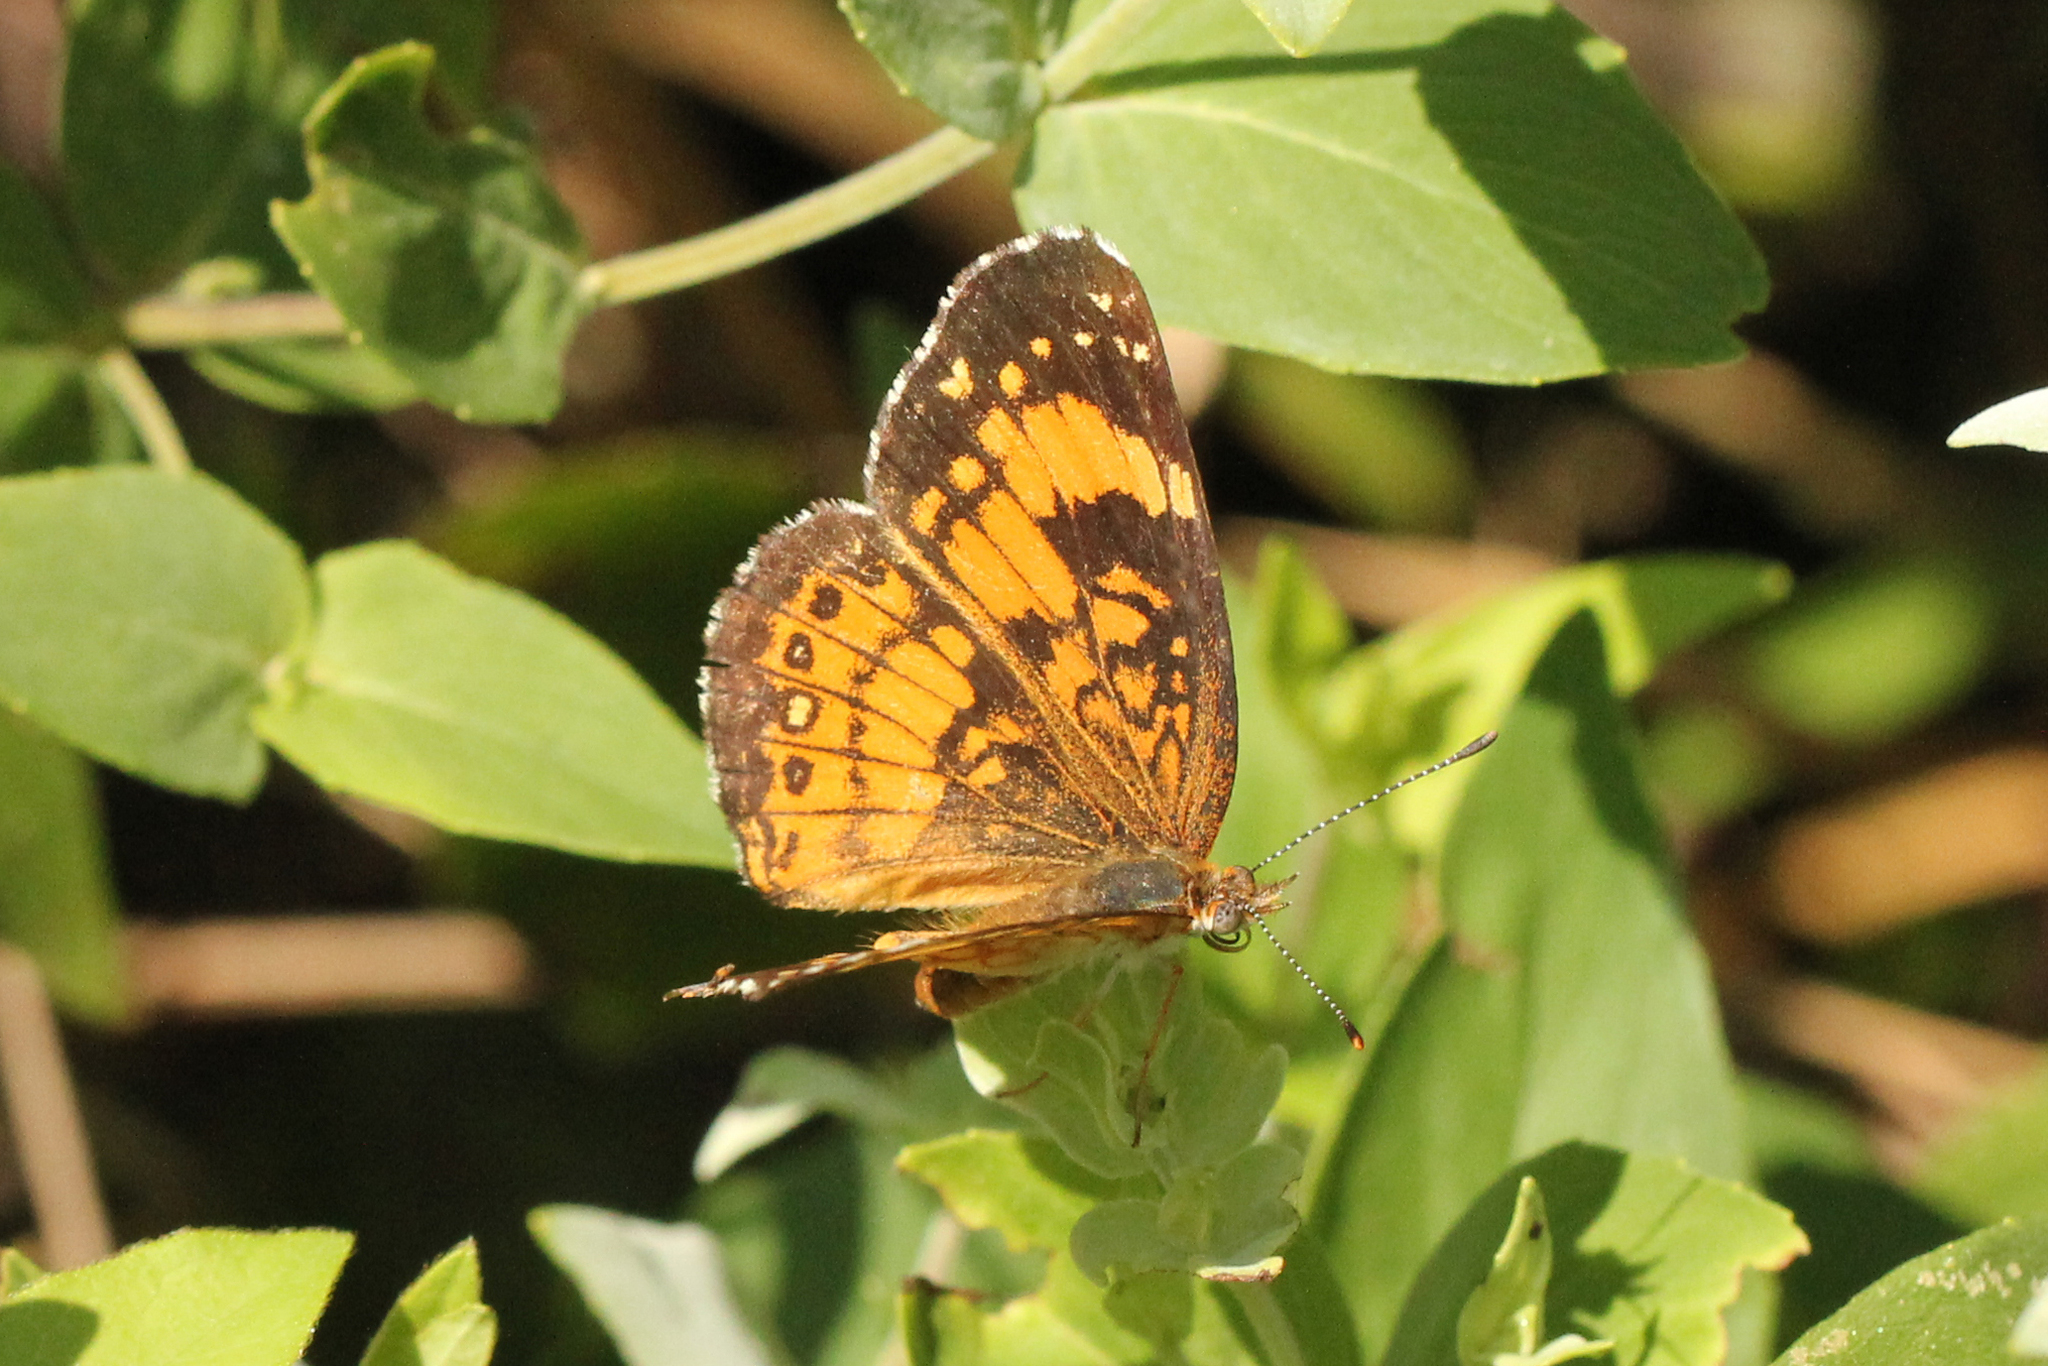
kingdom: Animalia
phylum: Arthropoda
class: Insecta
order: Lepidoptera
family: Nymphalidae
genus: Chlosyne
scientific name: Chlosyne nycteis
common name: Silvery checkerspot
